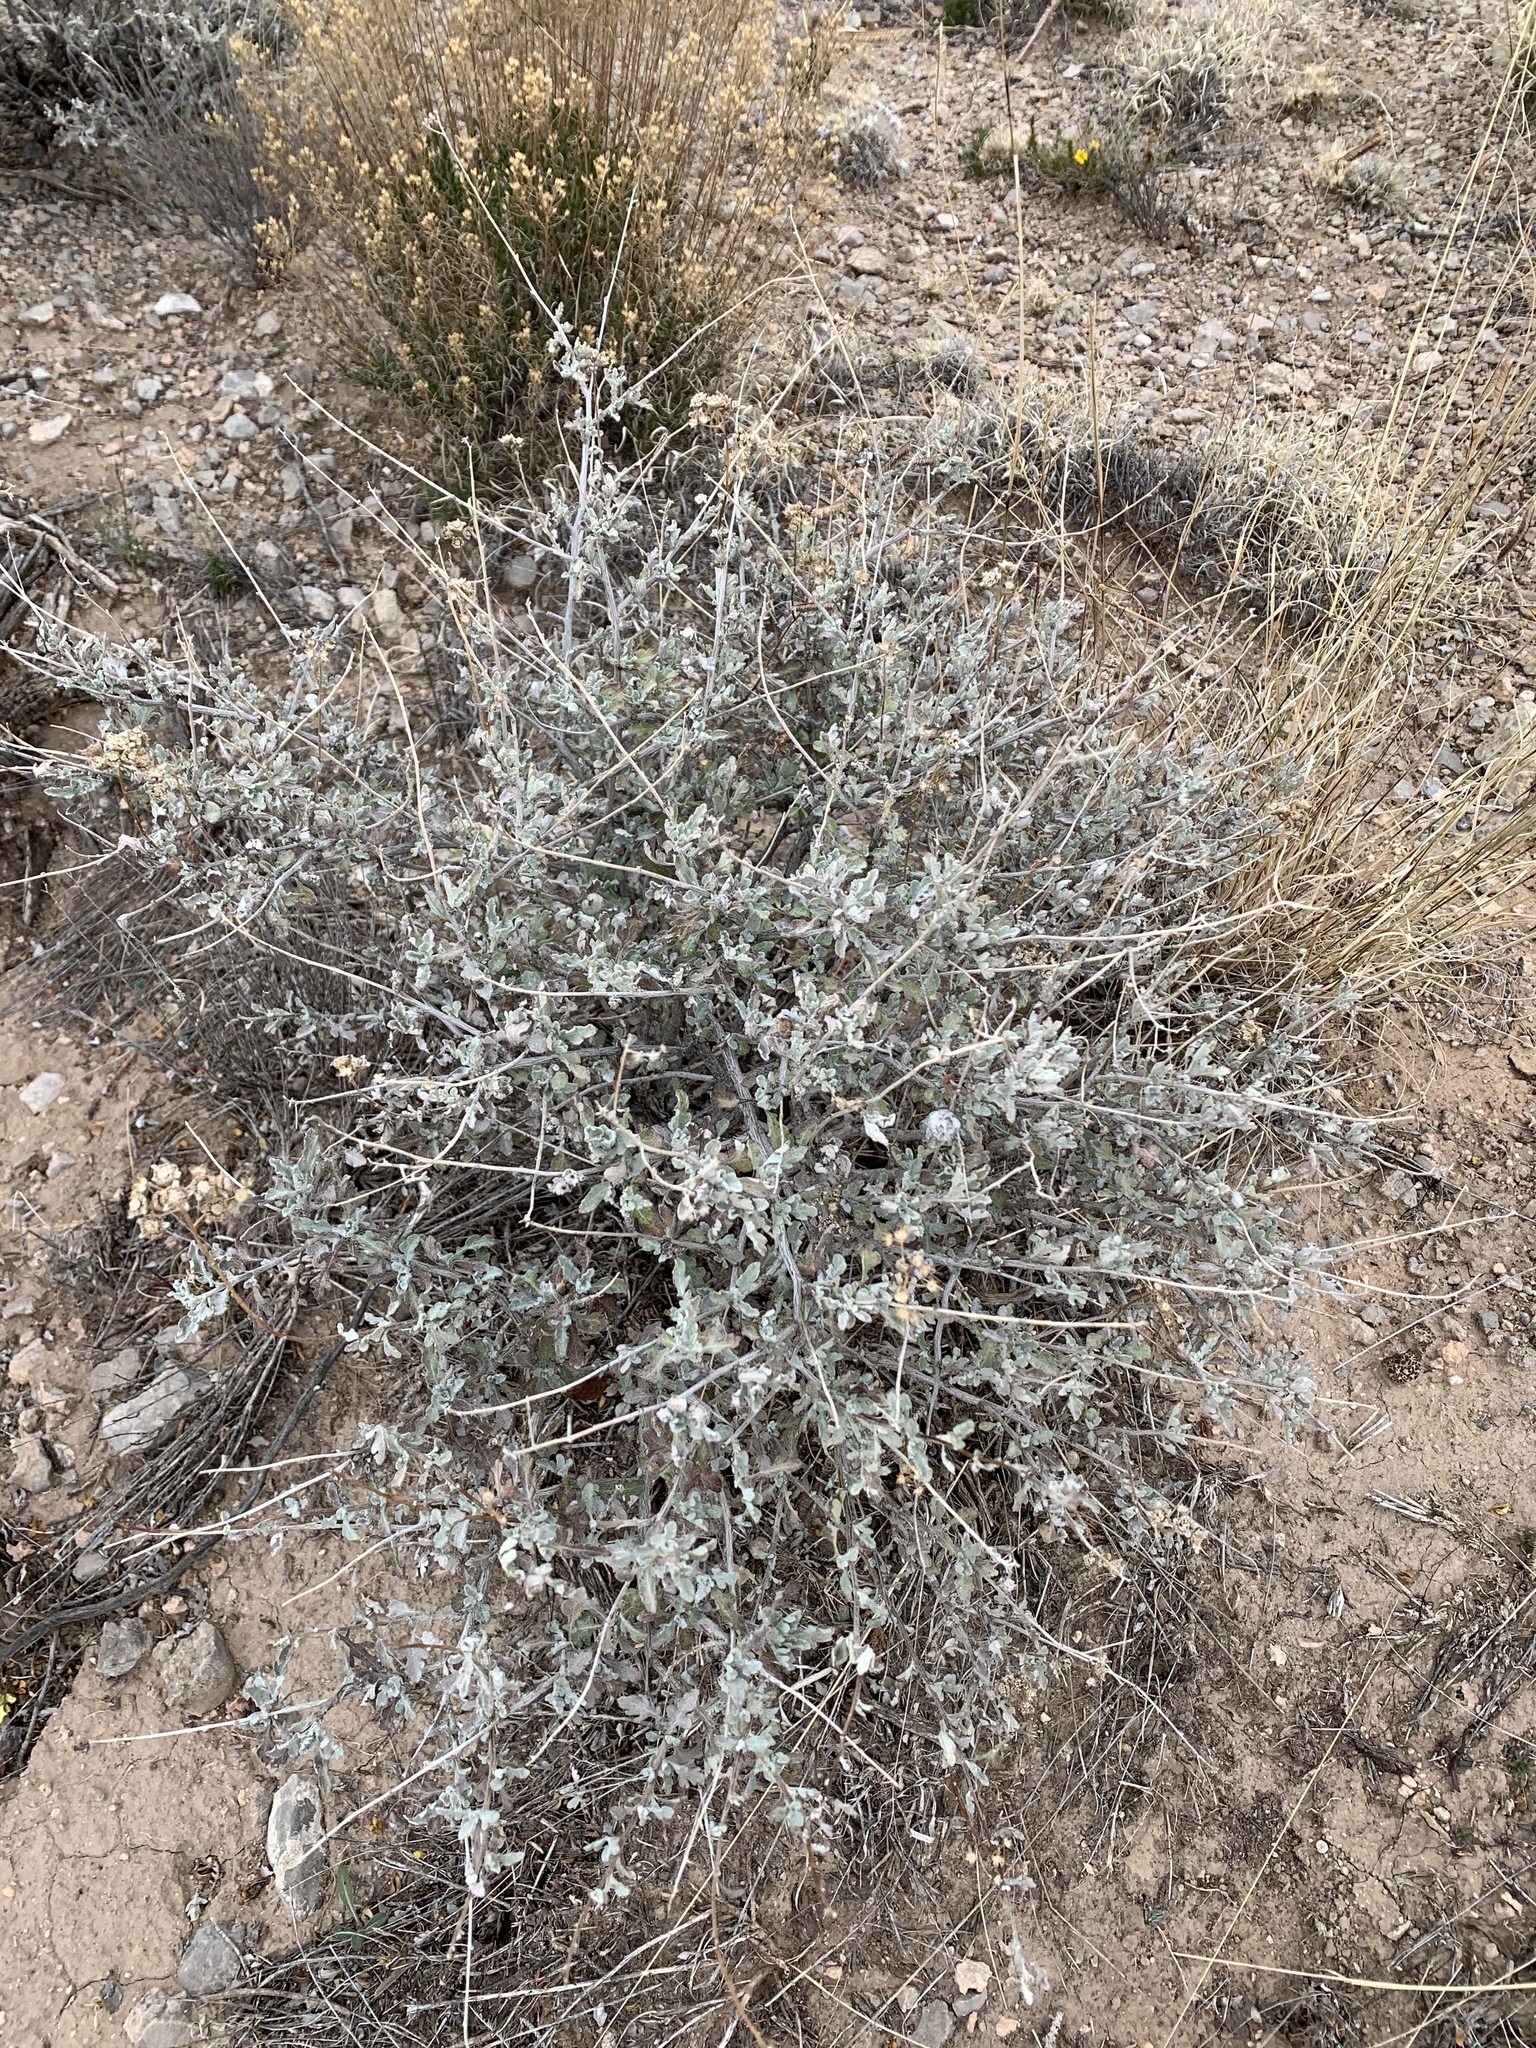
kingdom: Plantae
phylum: Tracheophyta
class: Magnoliopsida
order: Asterales
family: Asteraceae
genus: Parthenium
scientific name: Parthenium incanum
